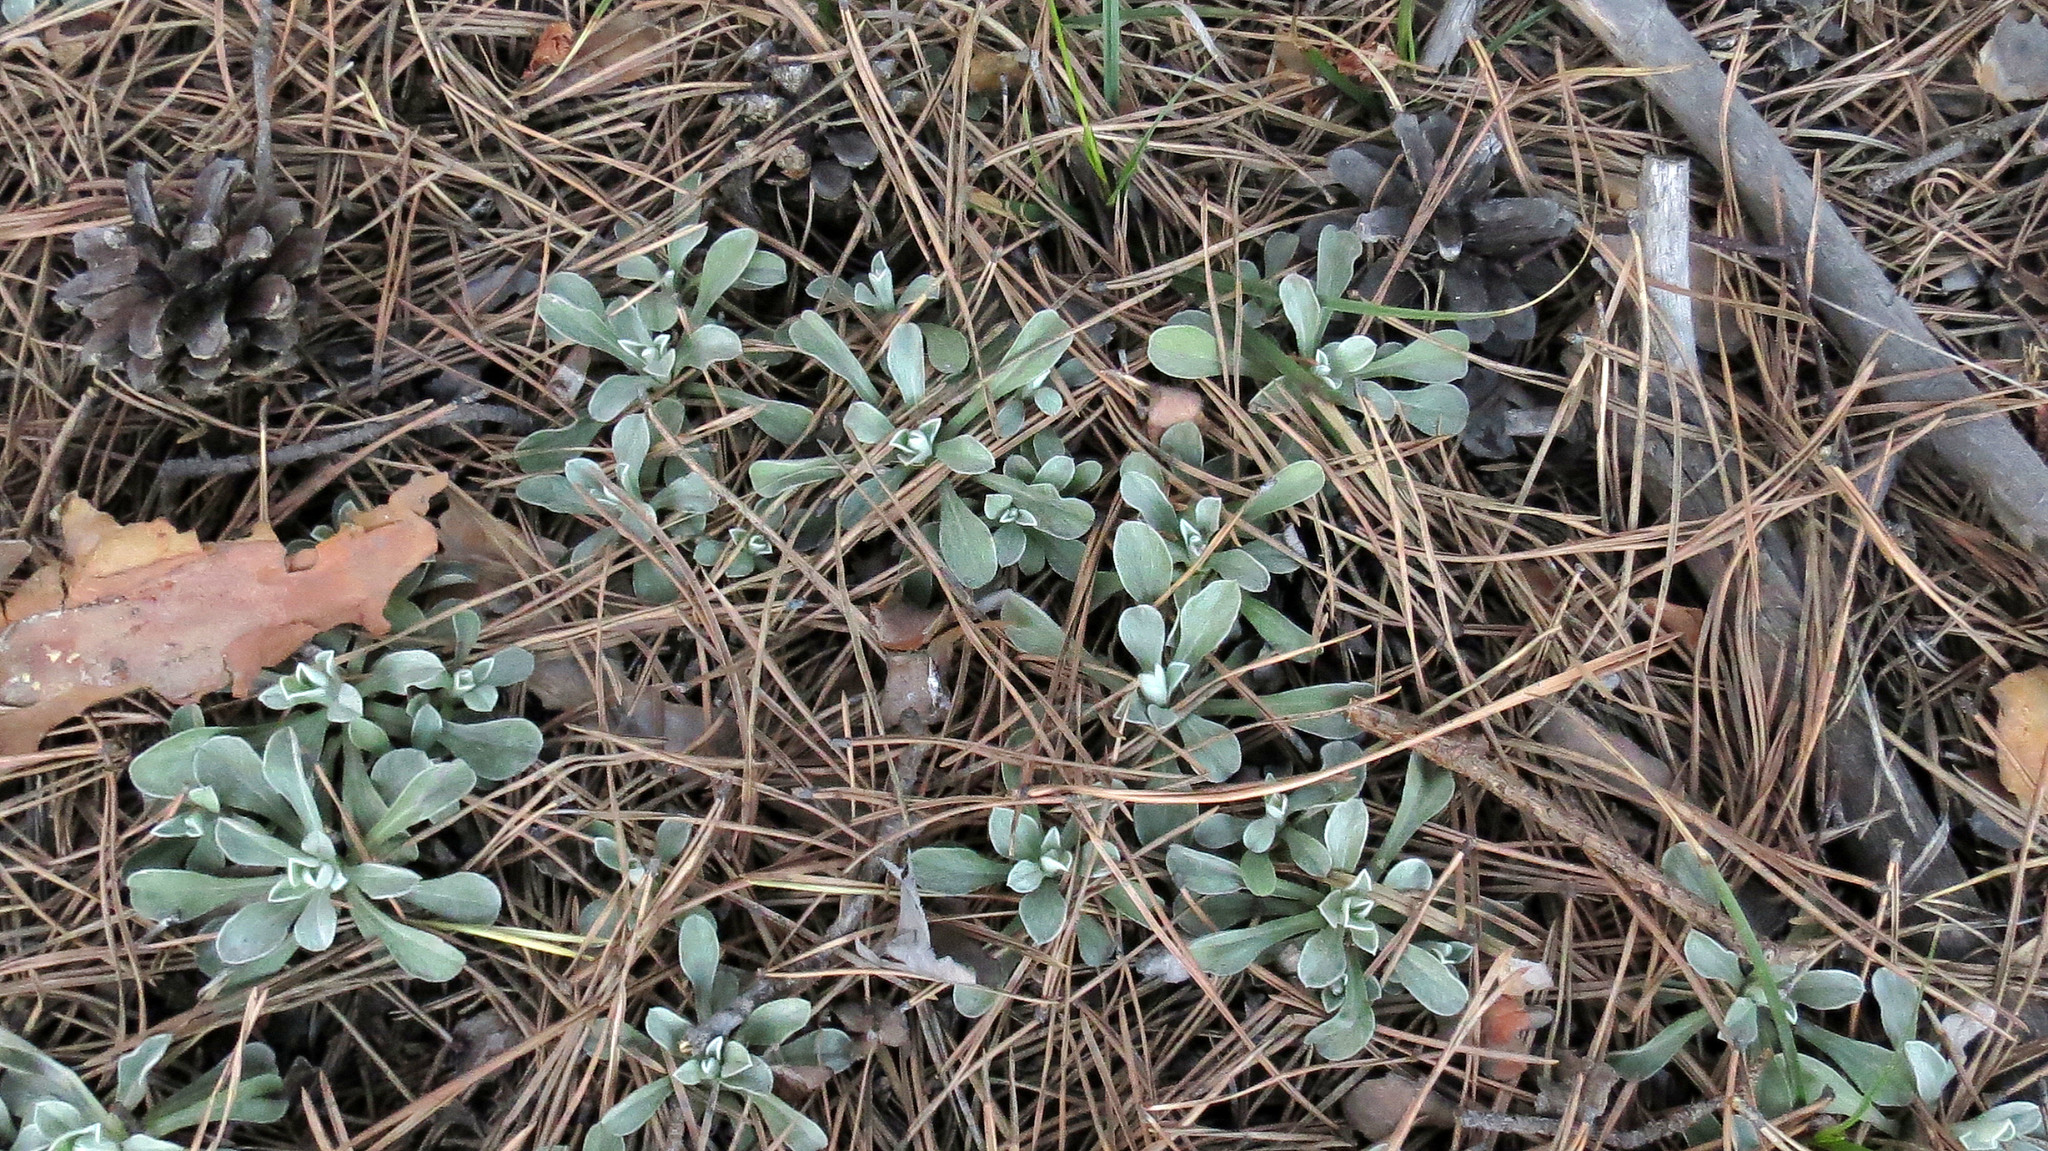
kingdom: Plantae
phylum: Tracheophyta
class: Magnoliopsida
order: Asterales
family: Asteraceae
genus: Antennaria
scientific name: Antennaria dioica
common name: Mountain everlasting
